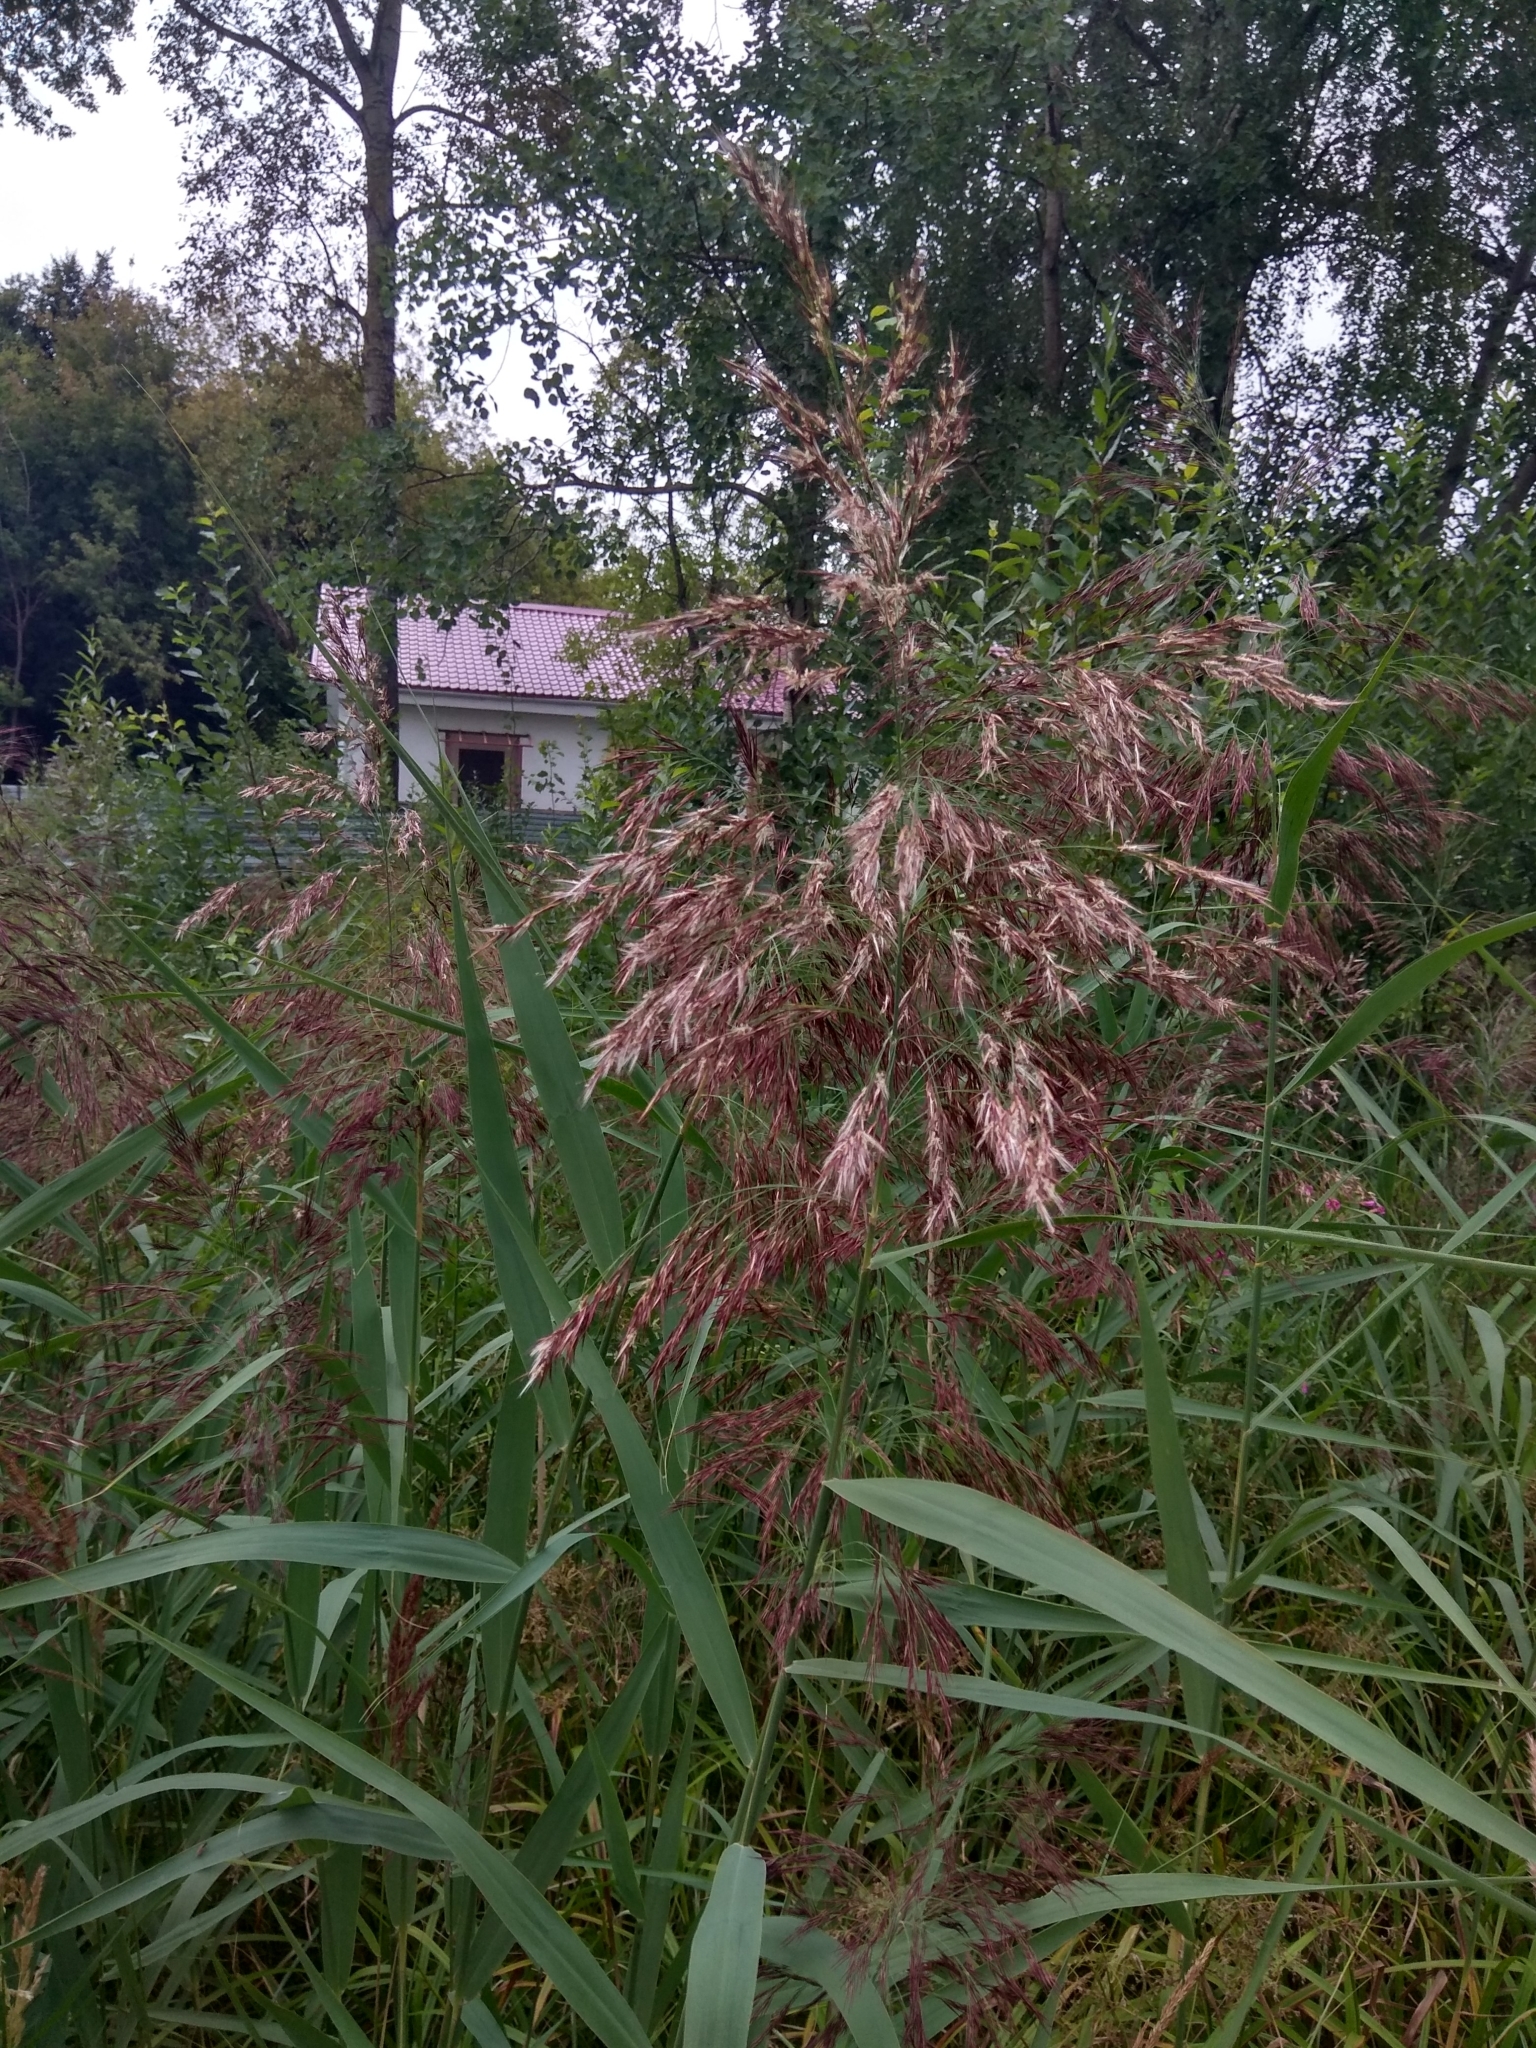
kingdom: Plantae
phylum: Tracheophyta
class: Liliopsida
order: Poales
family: Poaceae
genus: Phragmites
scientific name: Phragmites australis
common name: Common reed
